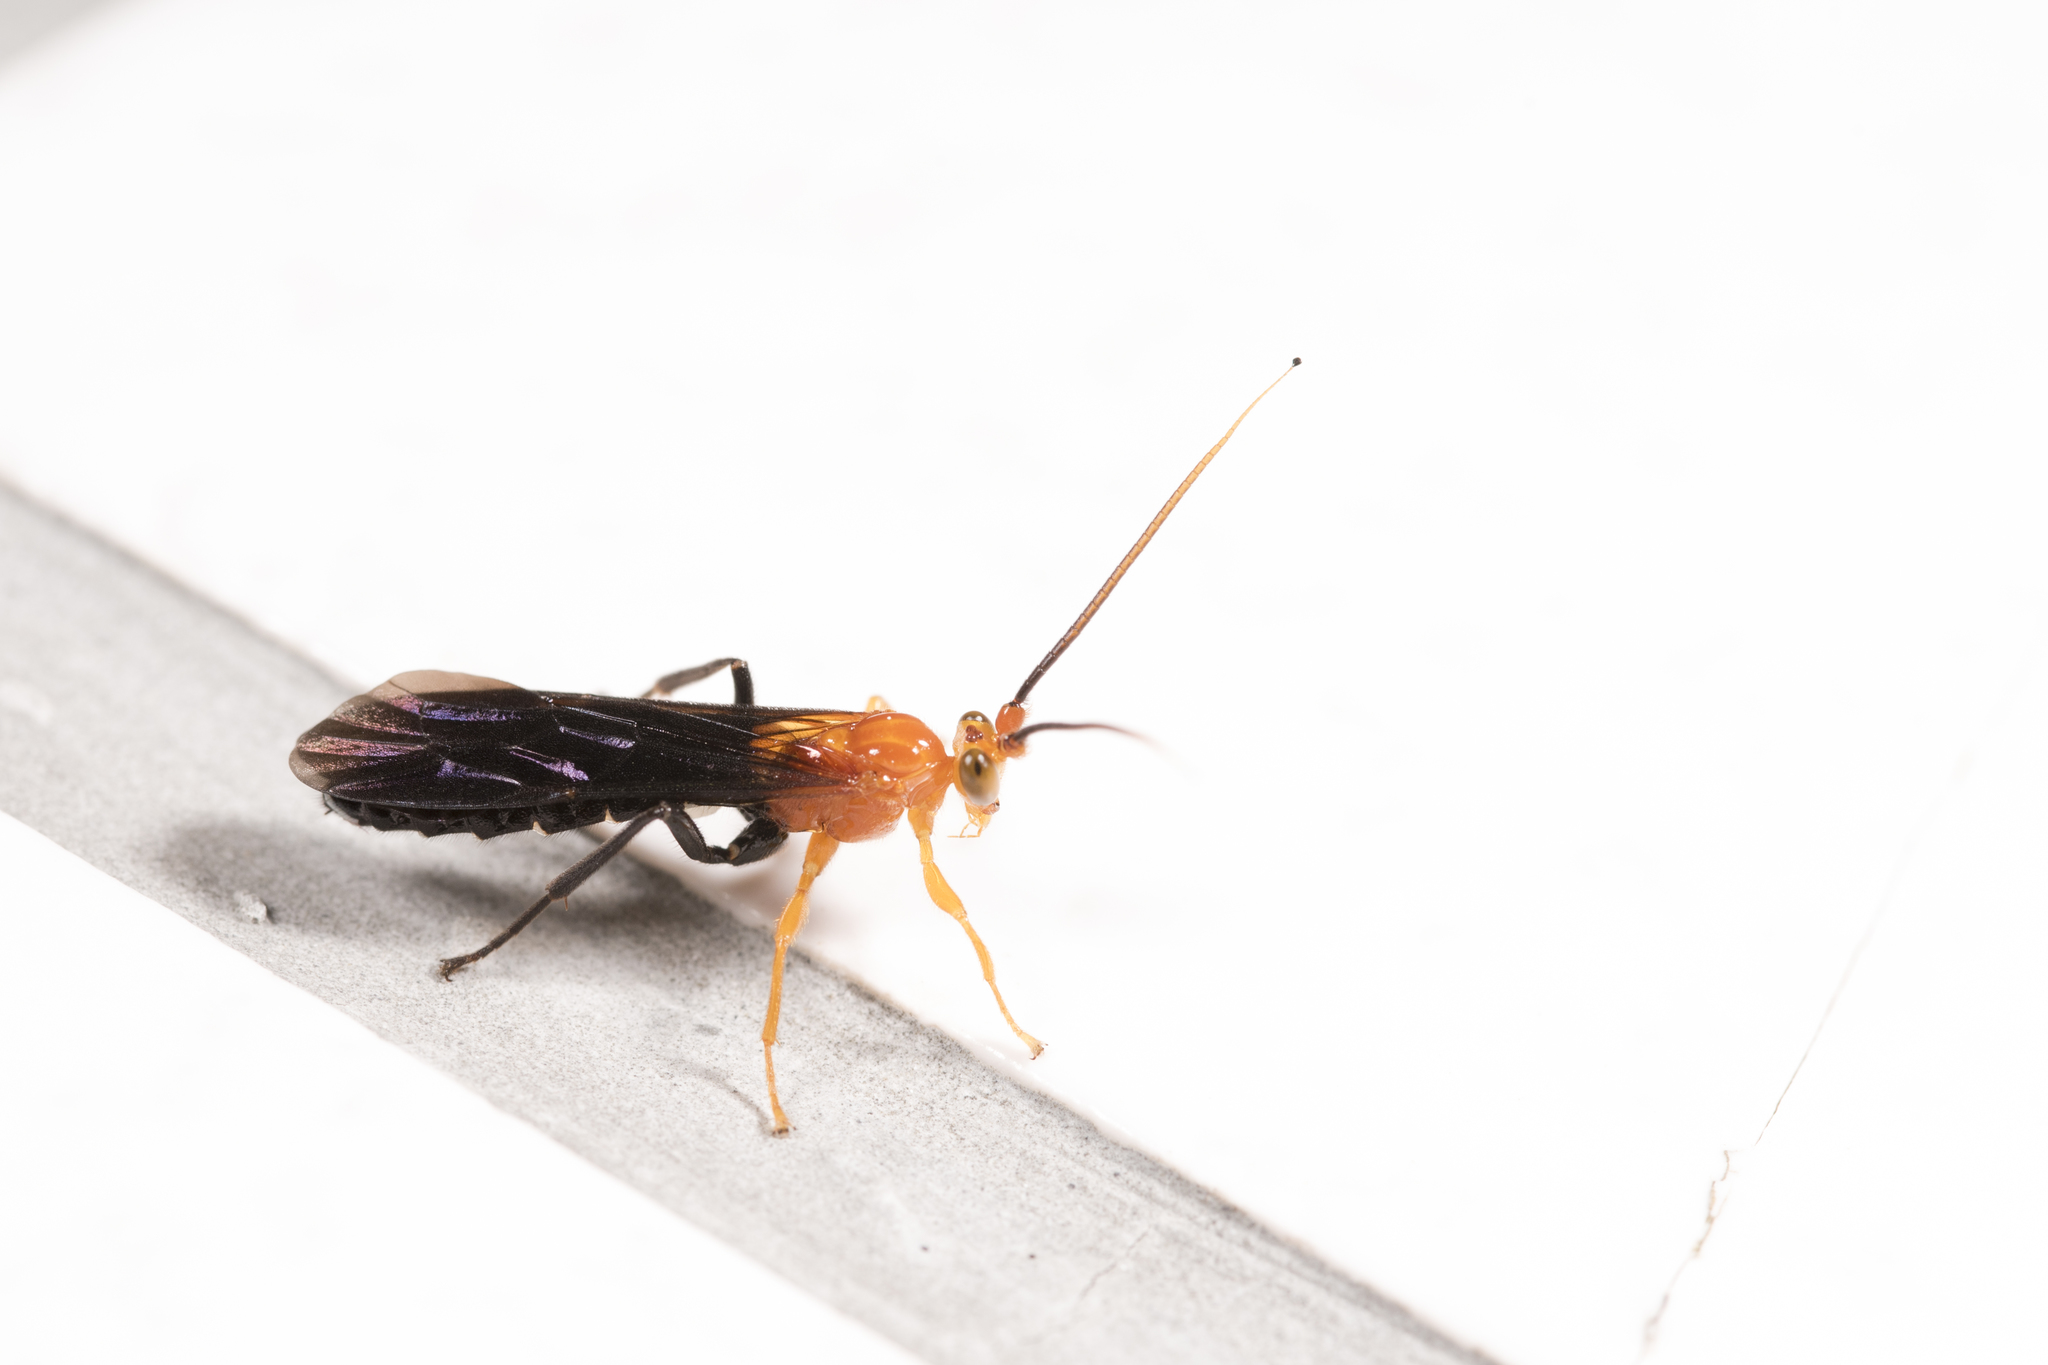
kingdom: Animalia
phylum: Arthropoda
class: Insecta
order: Hymenoptera
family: Ichneumonidae
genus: Camptotypus
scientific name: Camptotypus arianus
